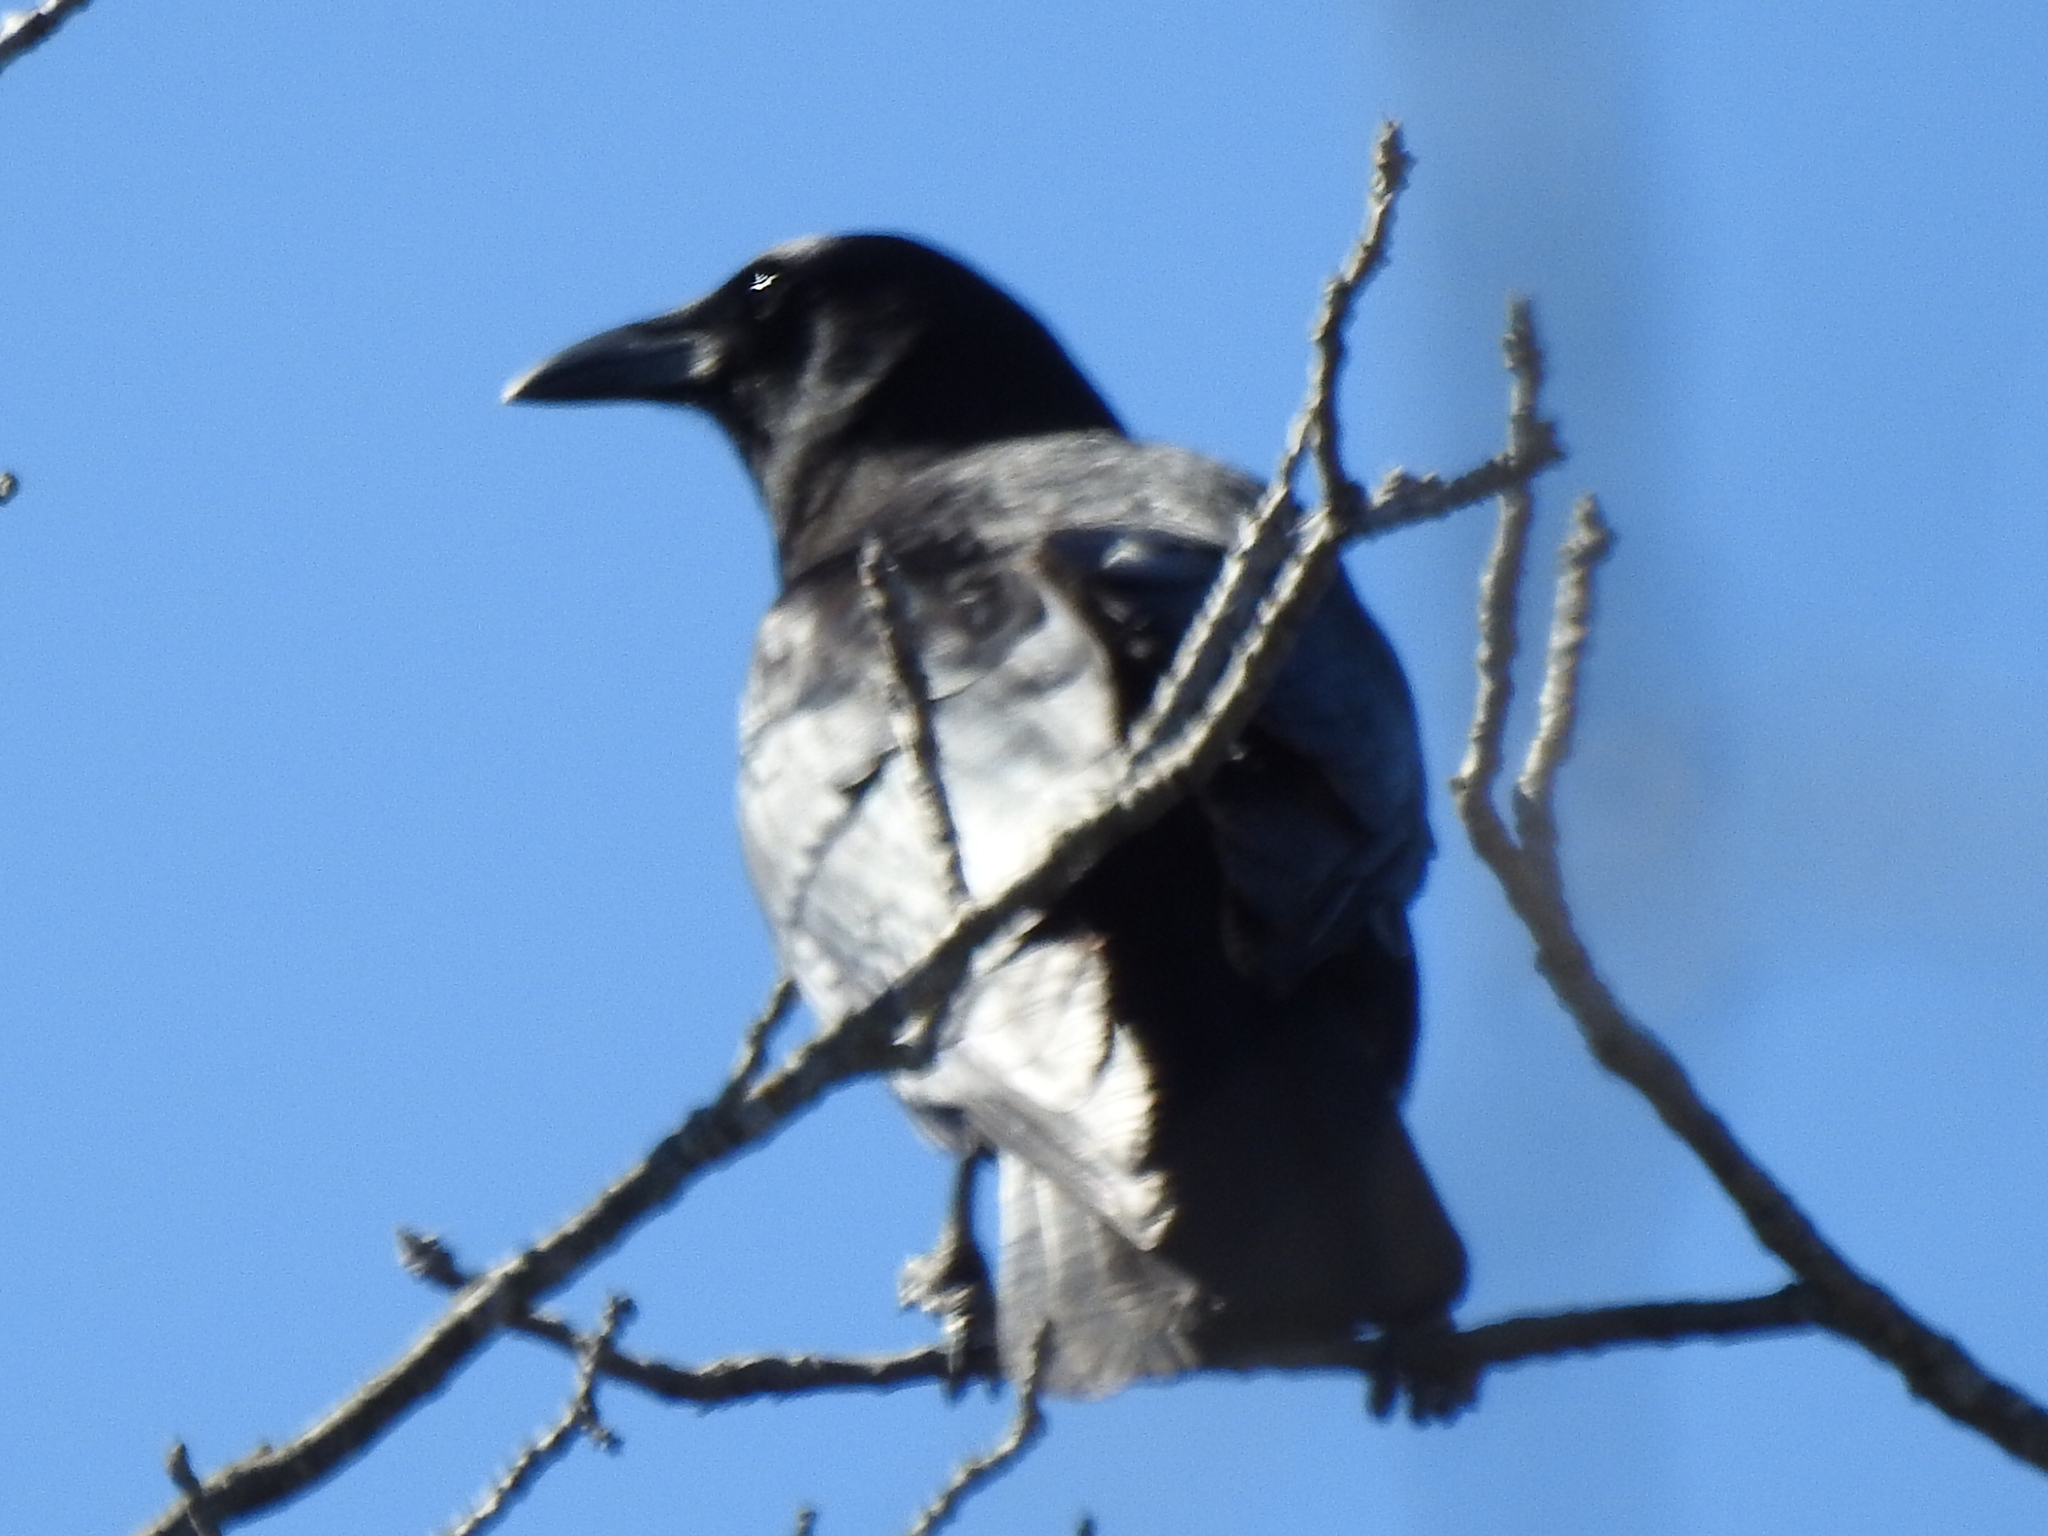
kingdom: Animalia
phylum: Chordata
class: Aves
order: Passeriformes
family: Corvidae
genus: Corvus
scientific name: Corvus brachyrhynchos
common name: American crow
